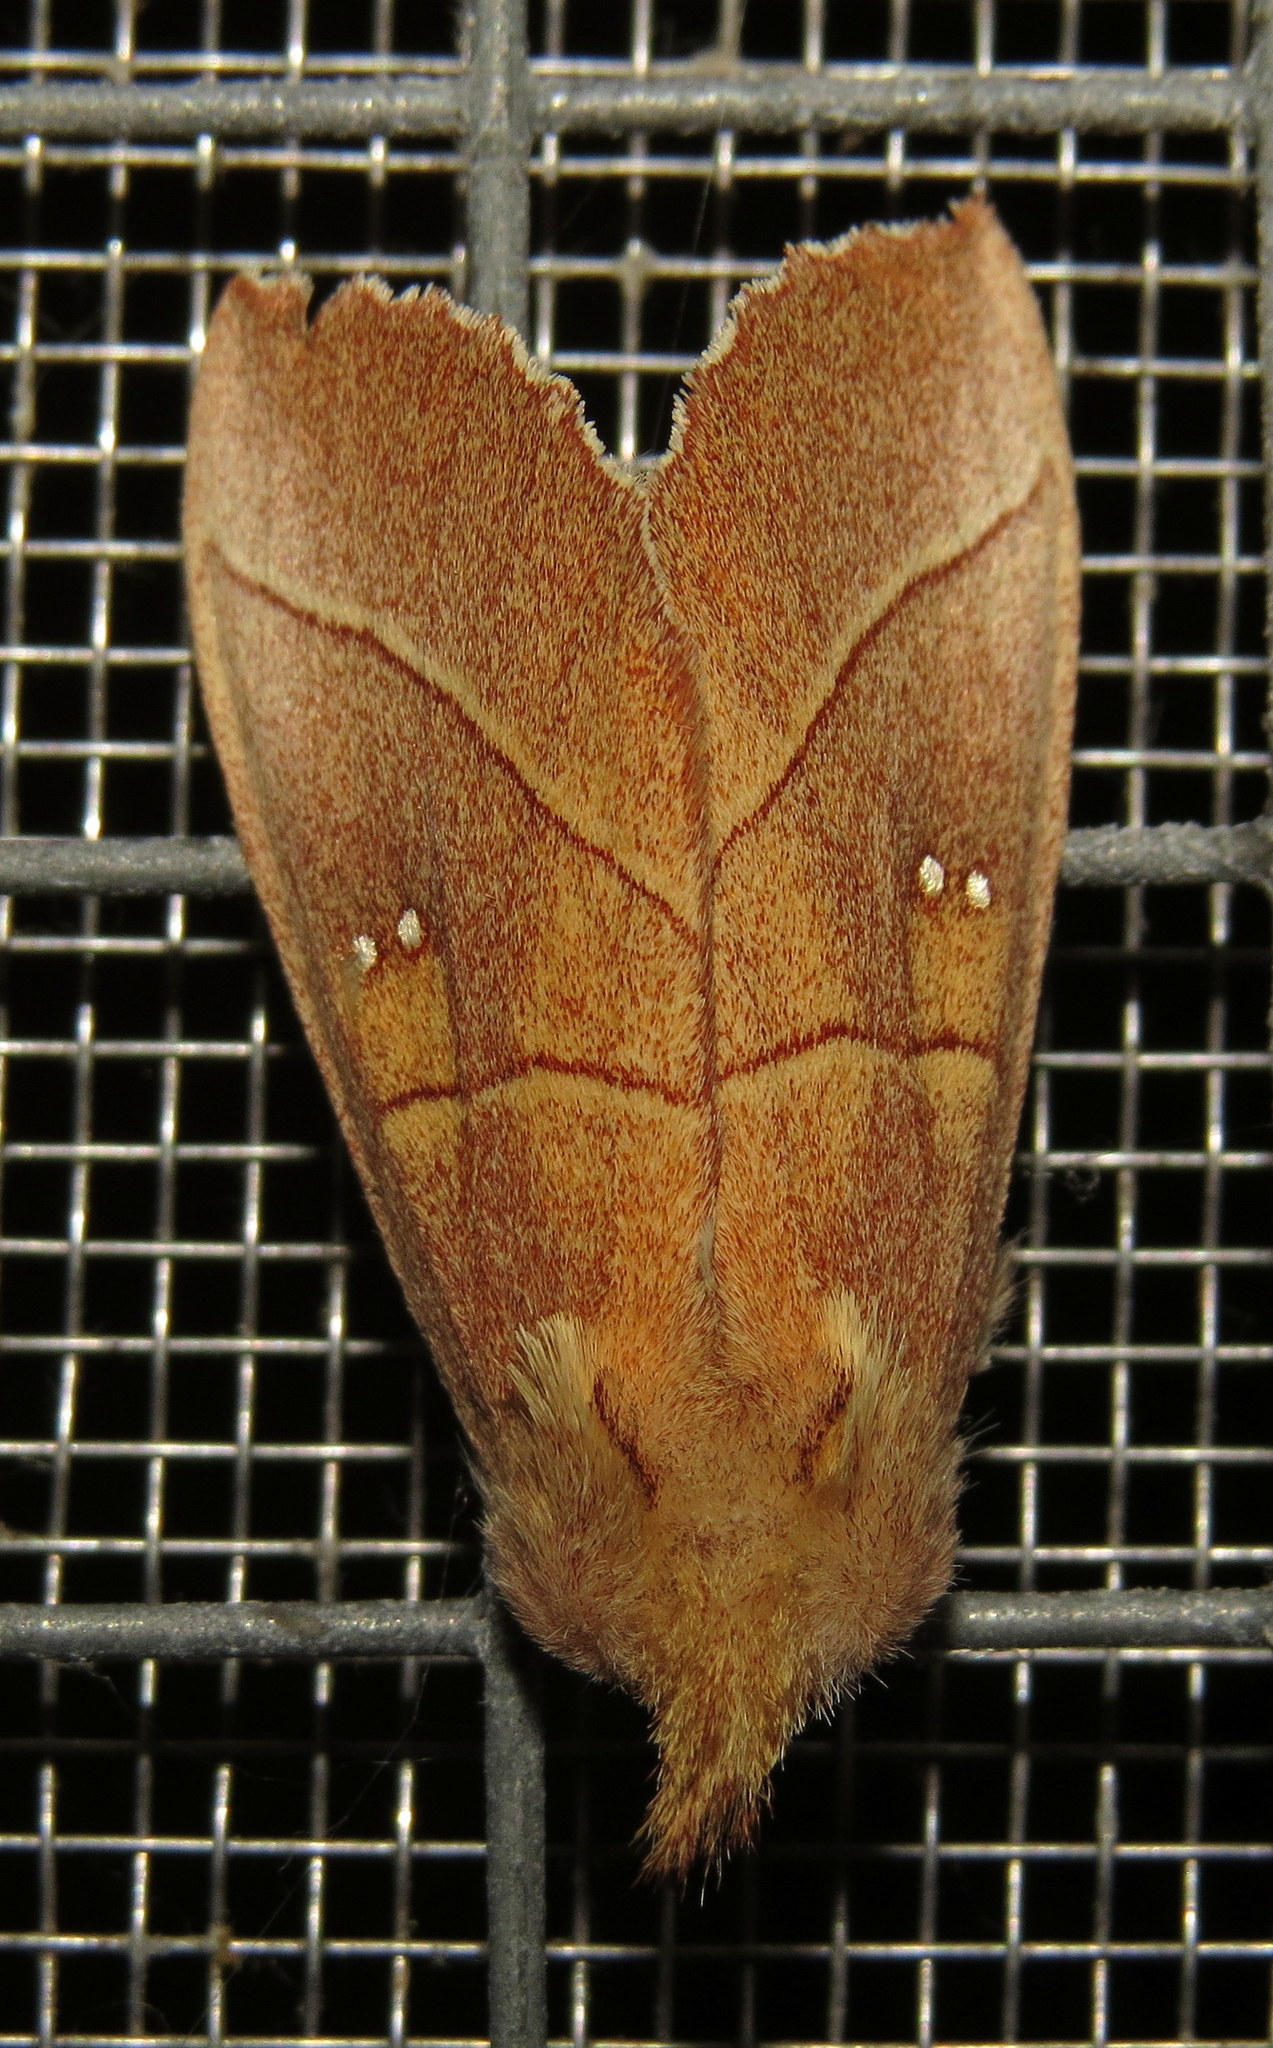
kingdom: Animalia
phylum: Arthropoda
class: Insecta
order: Lepidoptera
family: Notodontidae
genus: Nadata
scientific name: Nadata gibbosa
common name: White-dotted prominent
